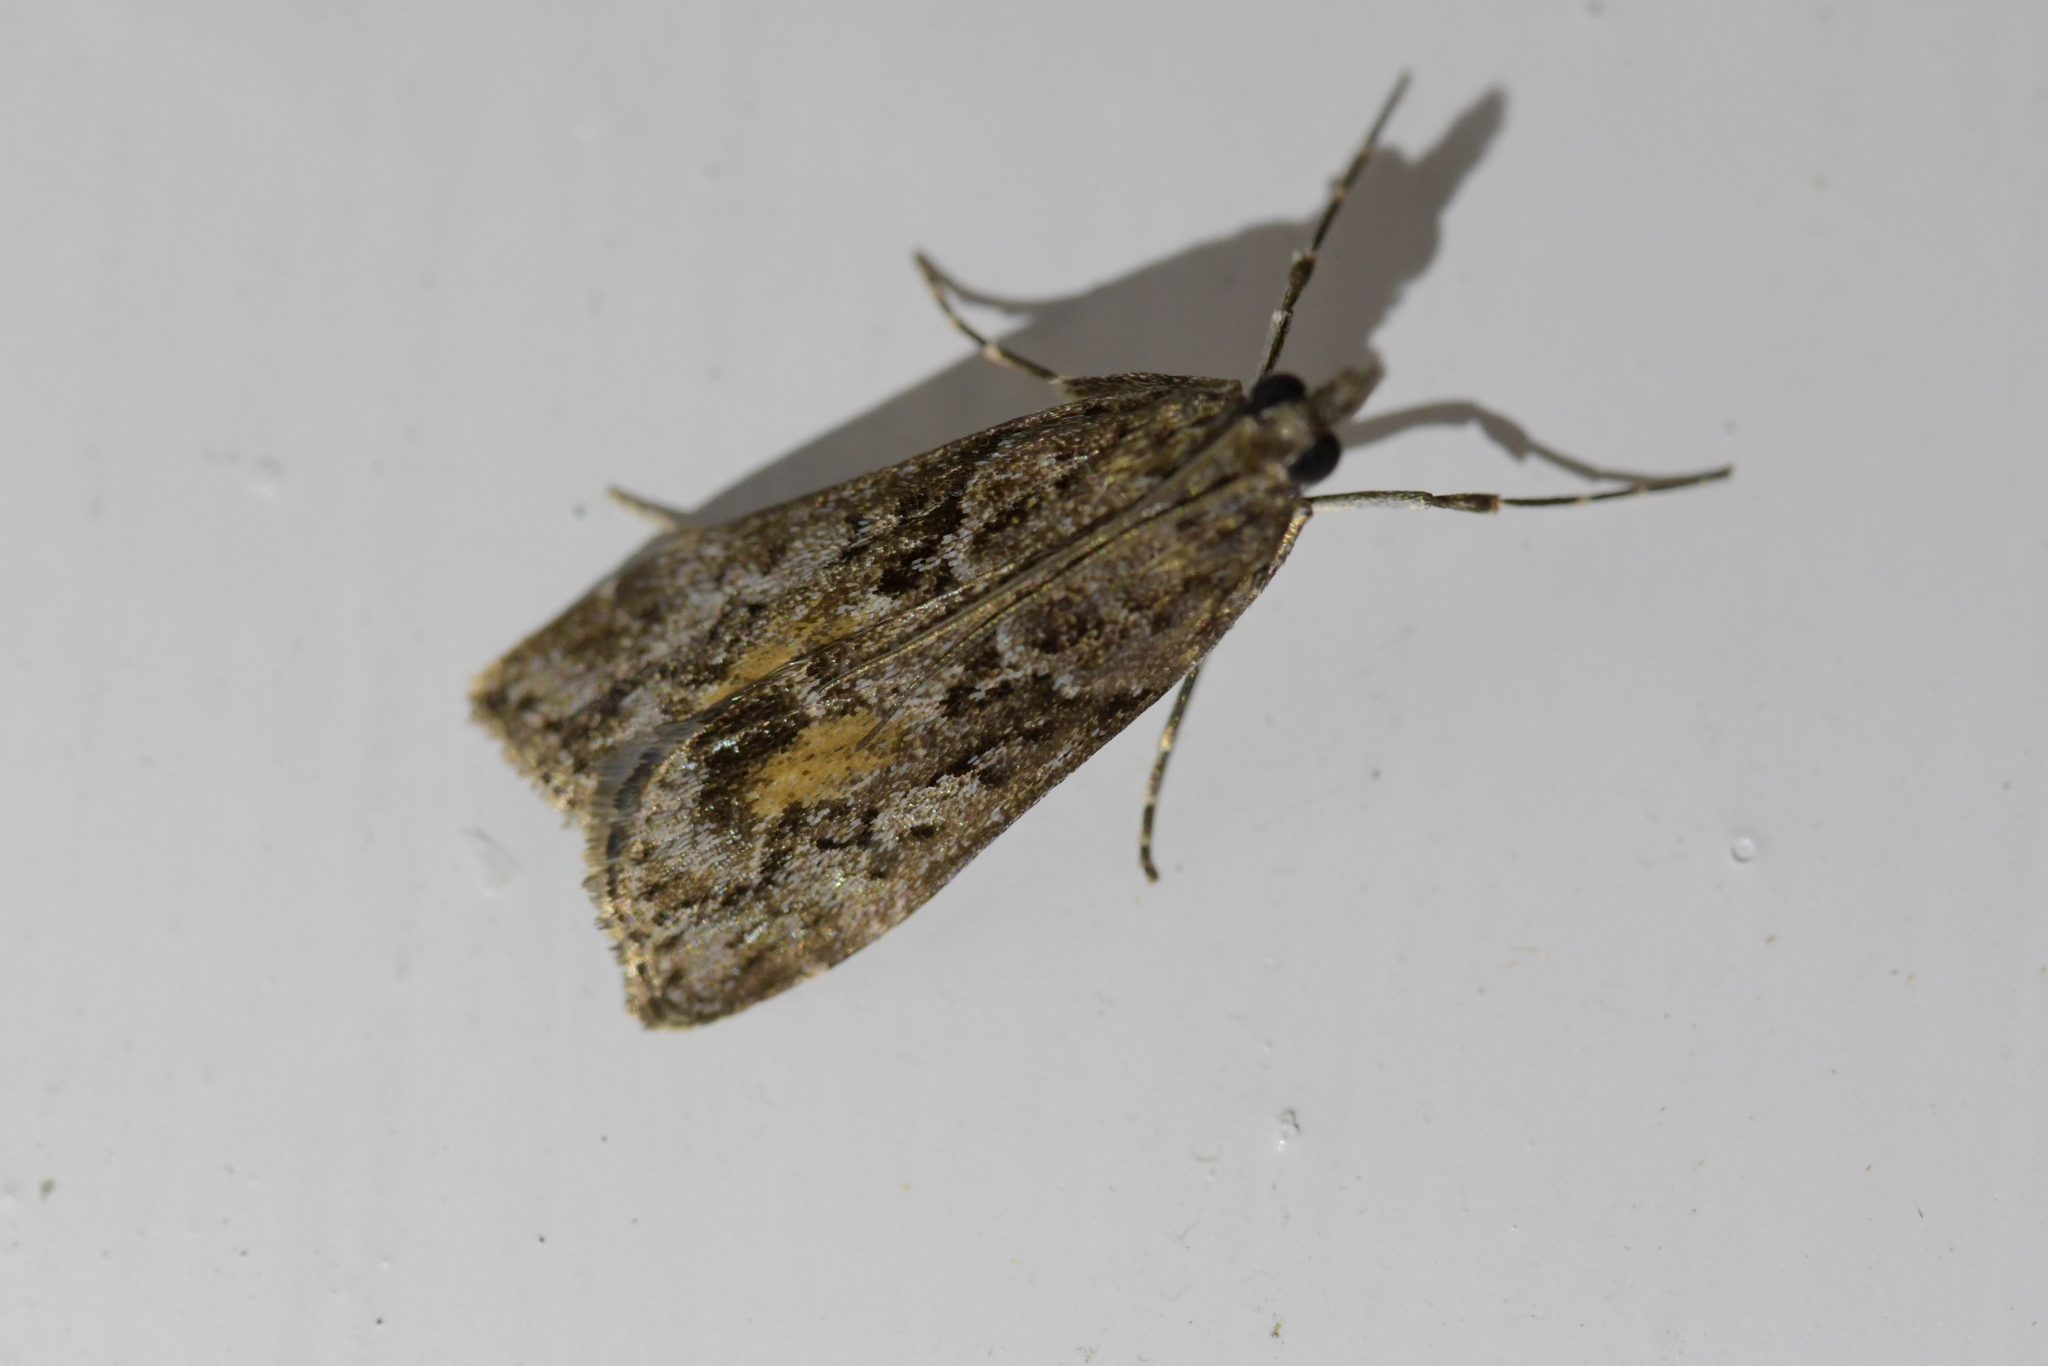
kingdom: Animalia
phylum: Arthropoda
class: Insecta
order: Lepidoptera
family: Crambidae
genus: Eudonia
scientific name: Eudonia submarginalis
